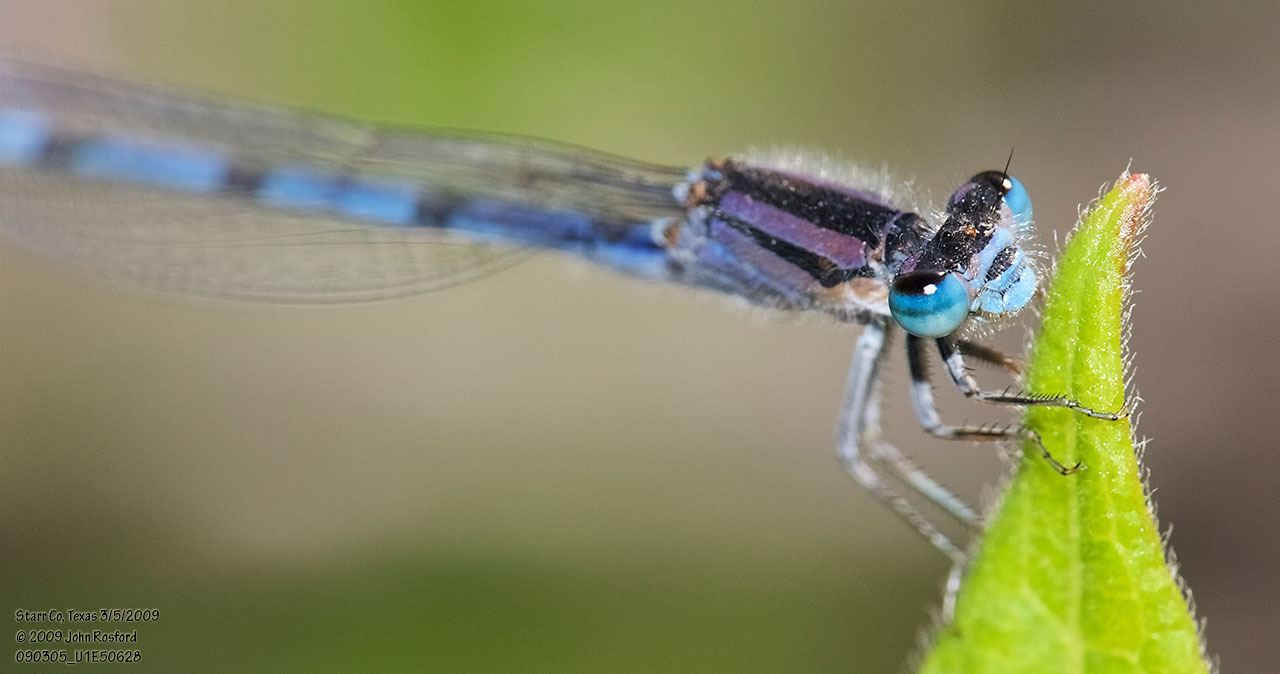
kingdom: Animalia
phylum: Arthropoda
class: Insecta
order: Odonata
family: Coenagrionidae
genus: Enallagma
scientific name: Enallagma civile
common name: Damselfly
